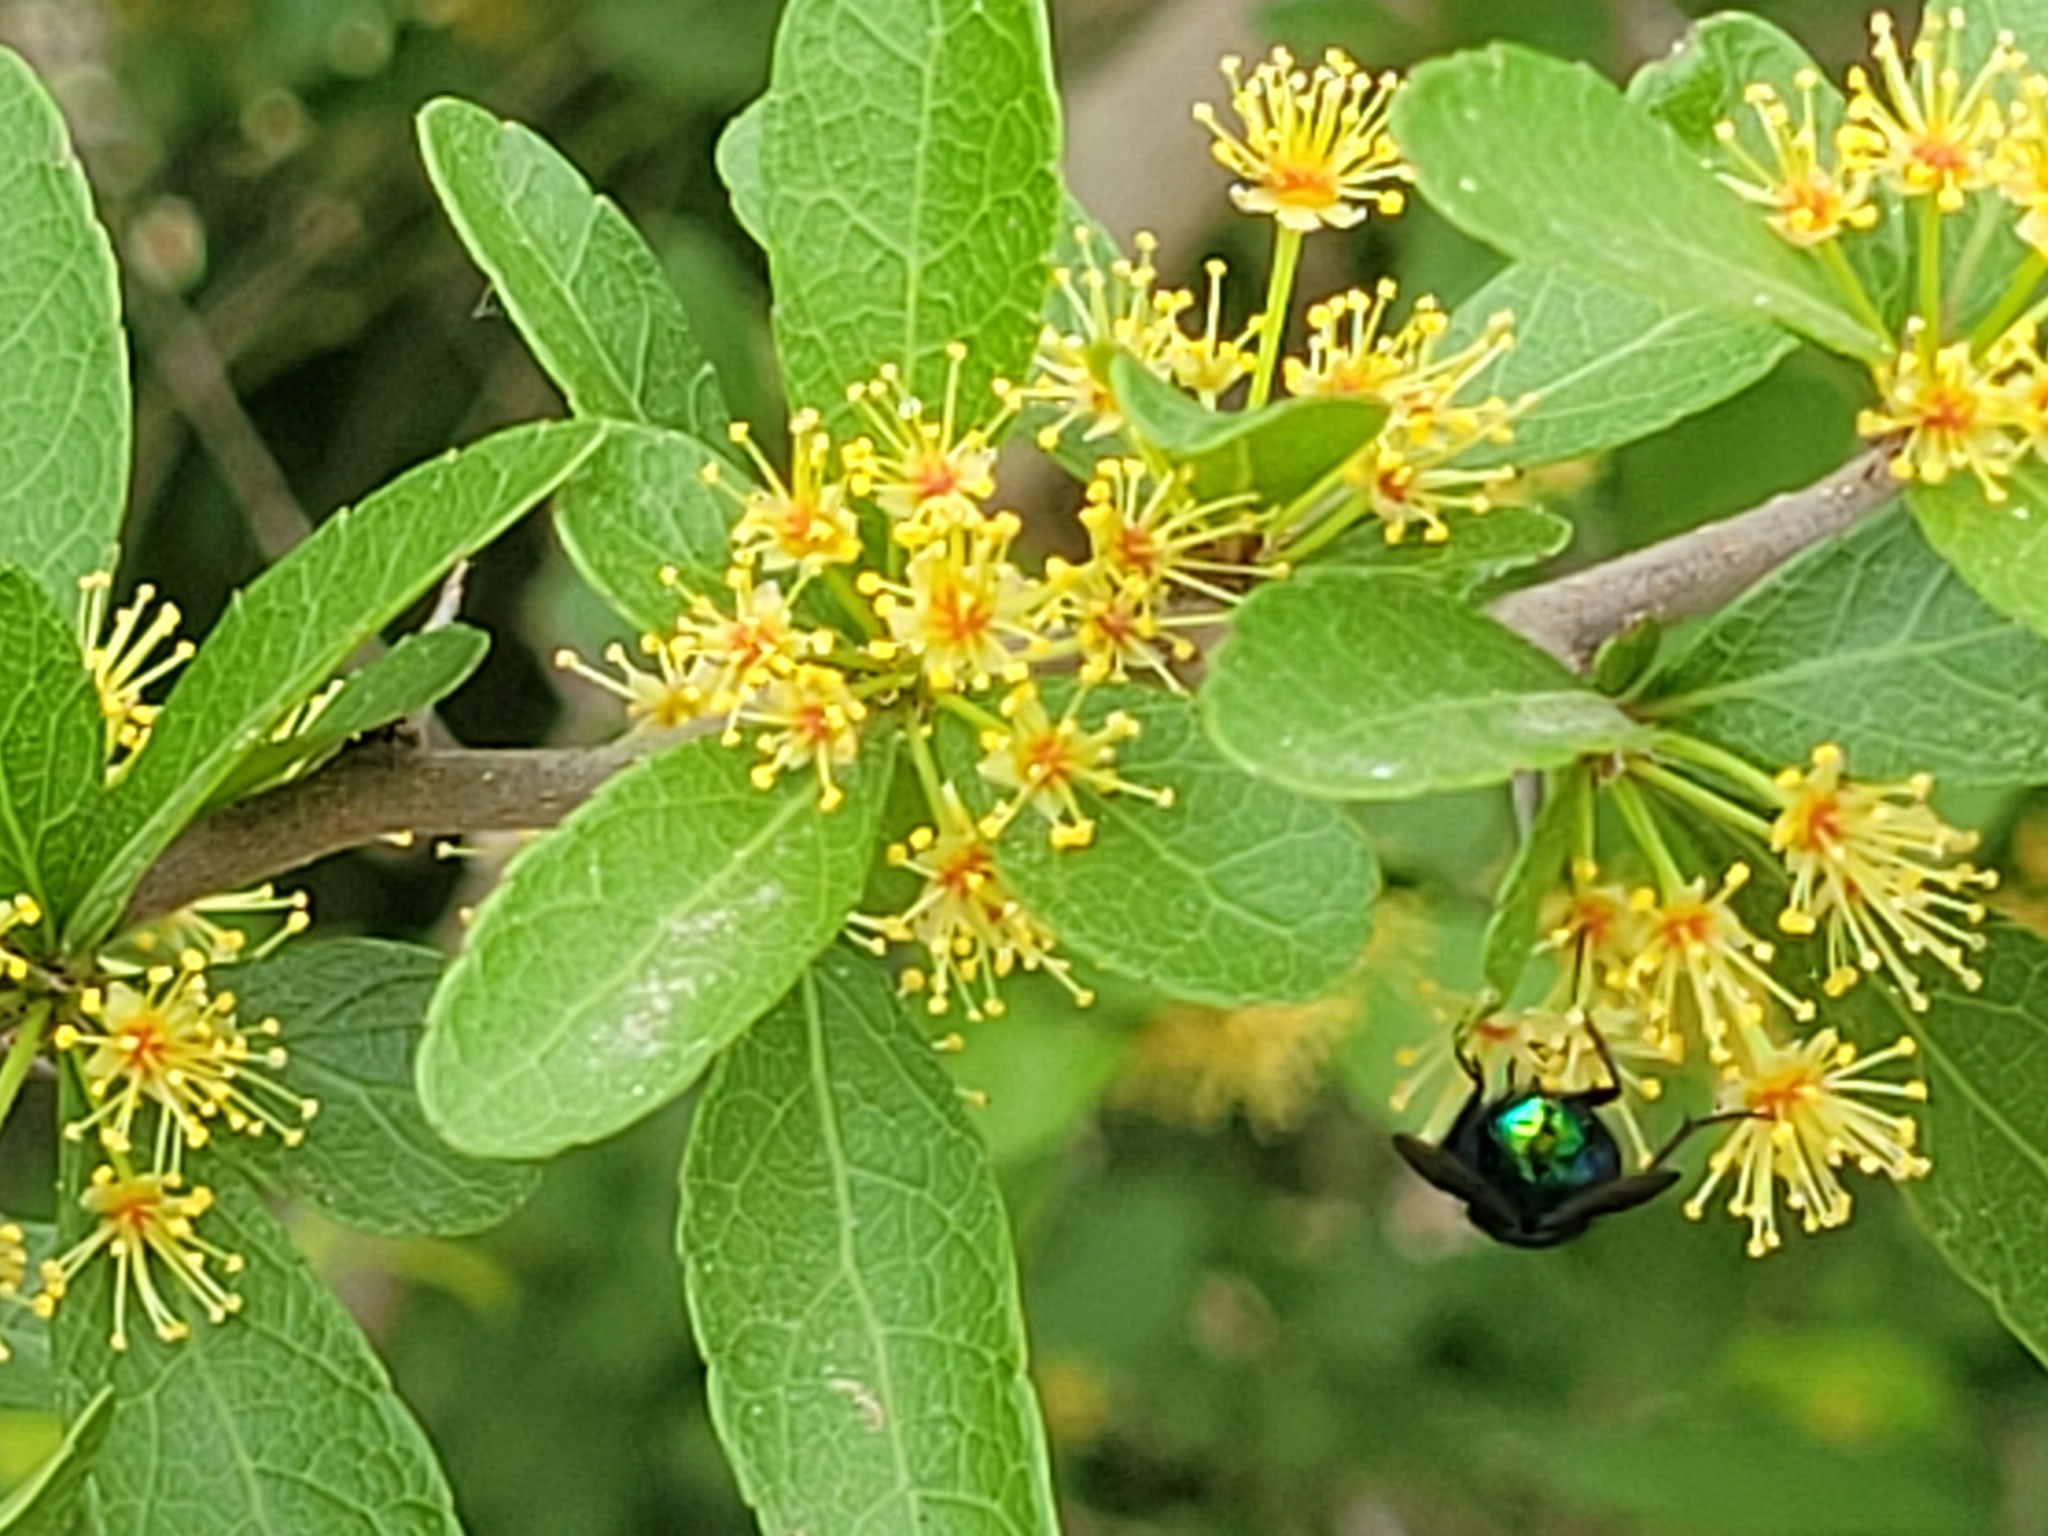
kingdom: Plantae
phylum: Tracheophyta
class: Magnoliopsida
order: Malpighiales
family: Salicaceae
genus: Xylosma
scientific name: Xylosma flexuosa
